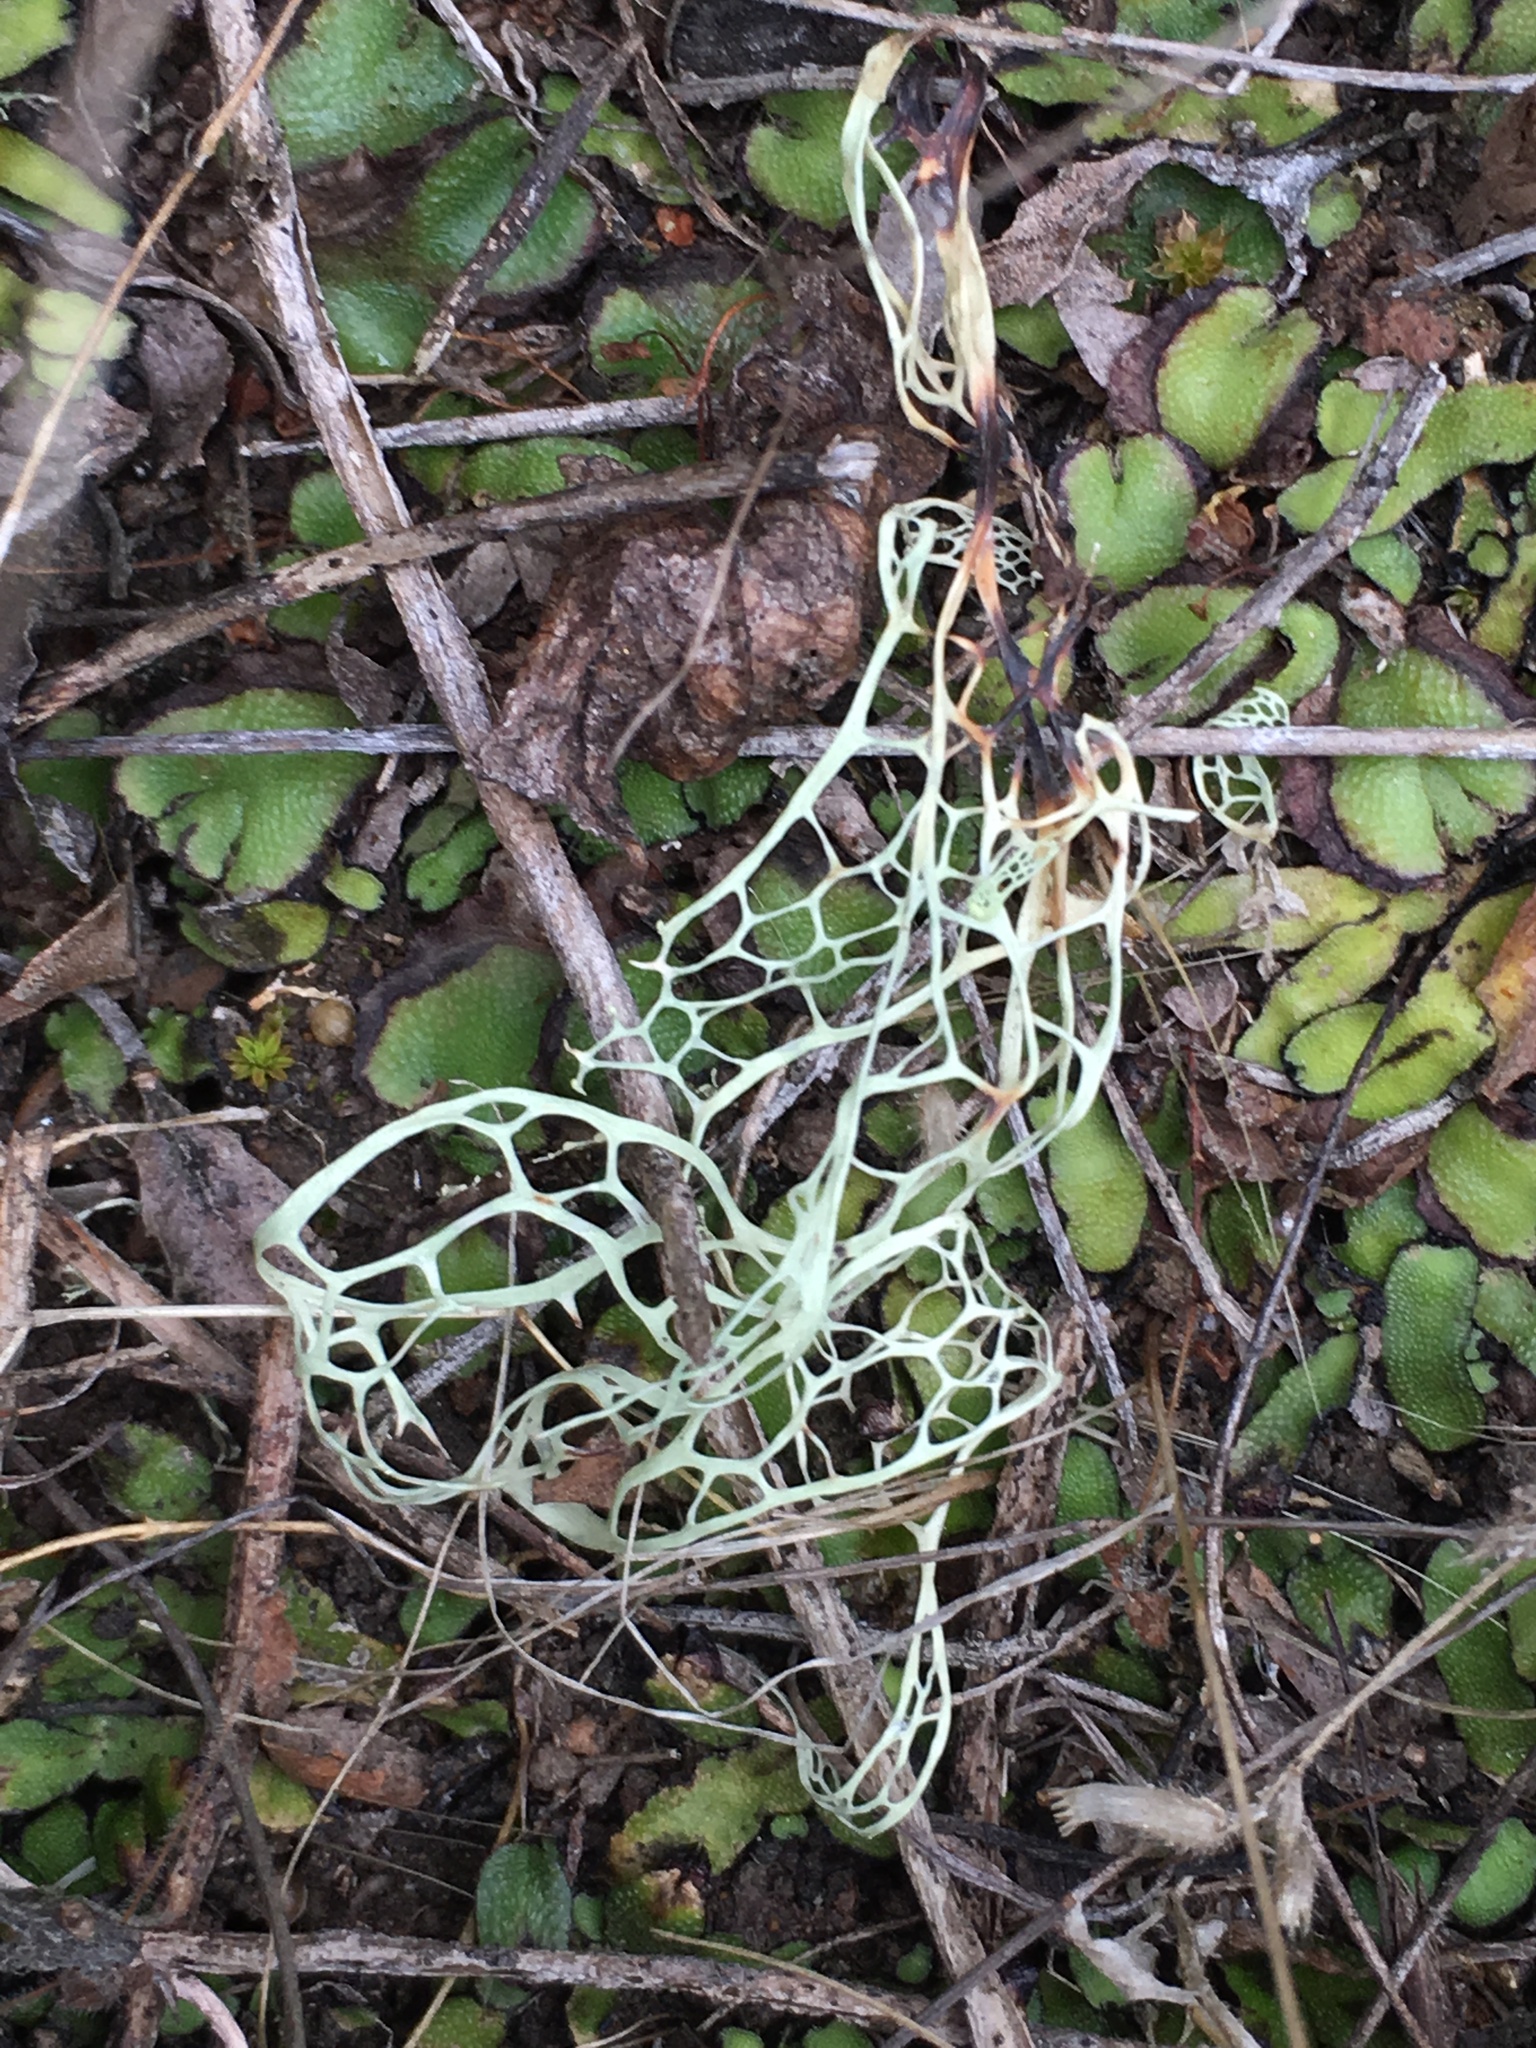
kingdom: Fungi
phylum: Ascomycota
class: Lecanoromycetes
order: Lecanorales
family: Ramalinaceae
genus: Ramalina
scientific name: Ramalina menziesii
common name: Lace lichen
